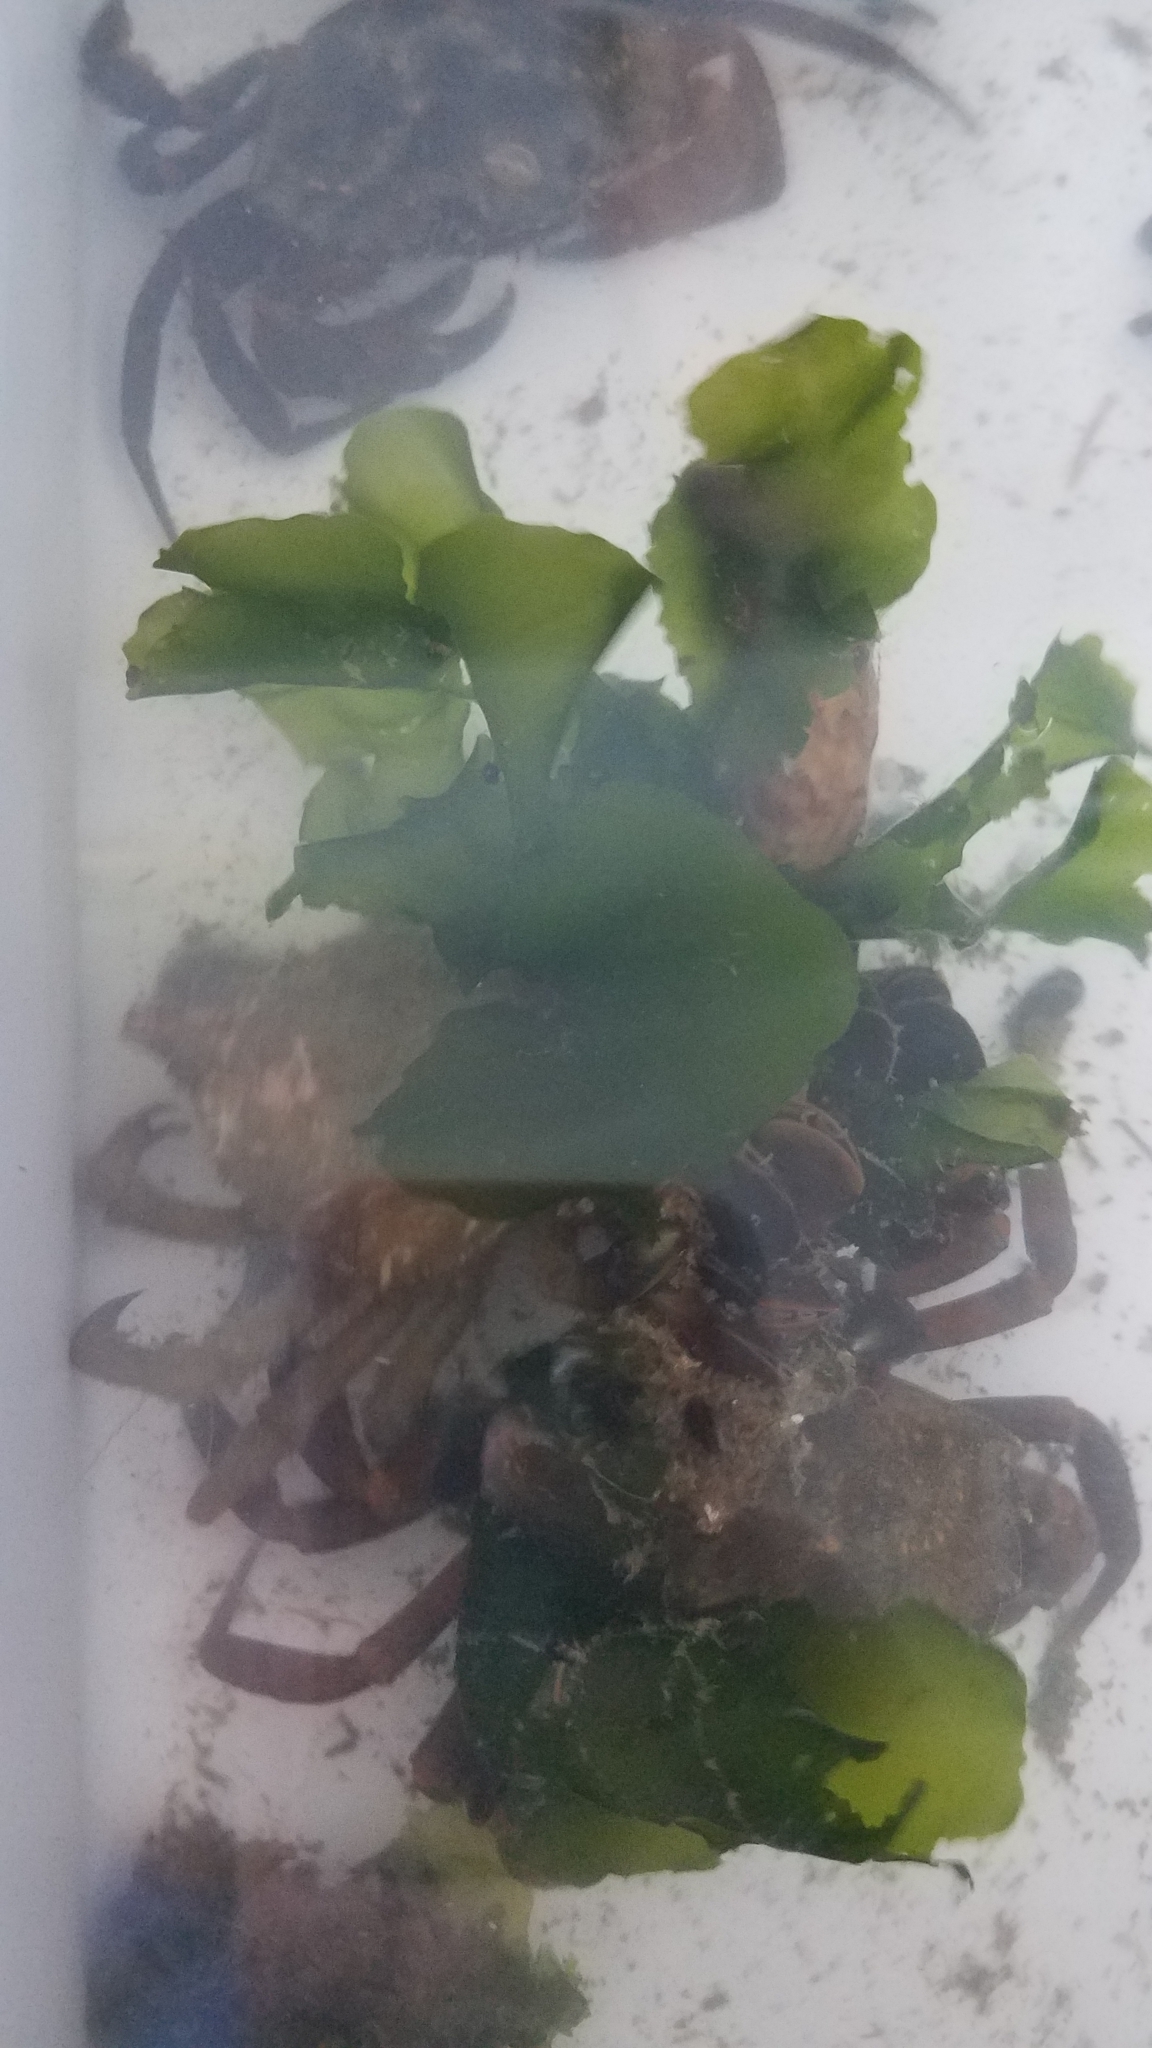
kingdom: Plantae
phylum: Chlorophyta
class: Ulvophyceae
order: Ulvales
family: Ulvaceae
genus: Ulva
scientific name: Ulva lactuca
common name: Sea lettuce
